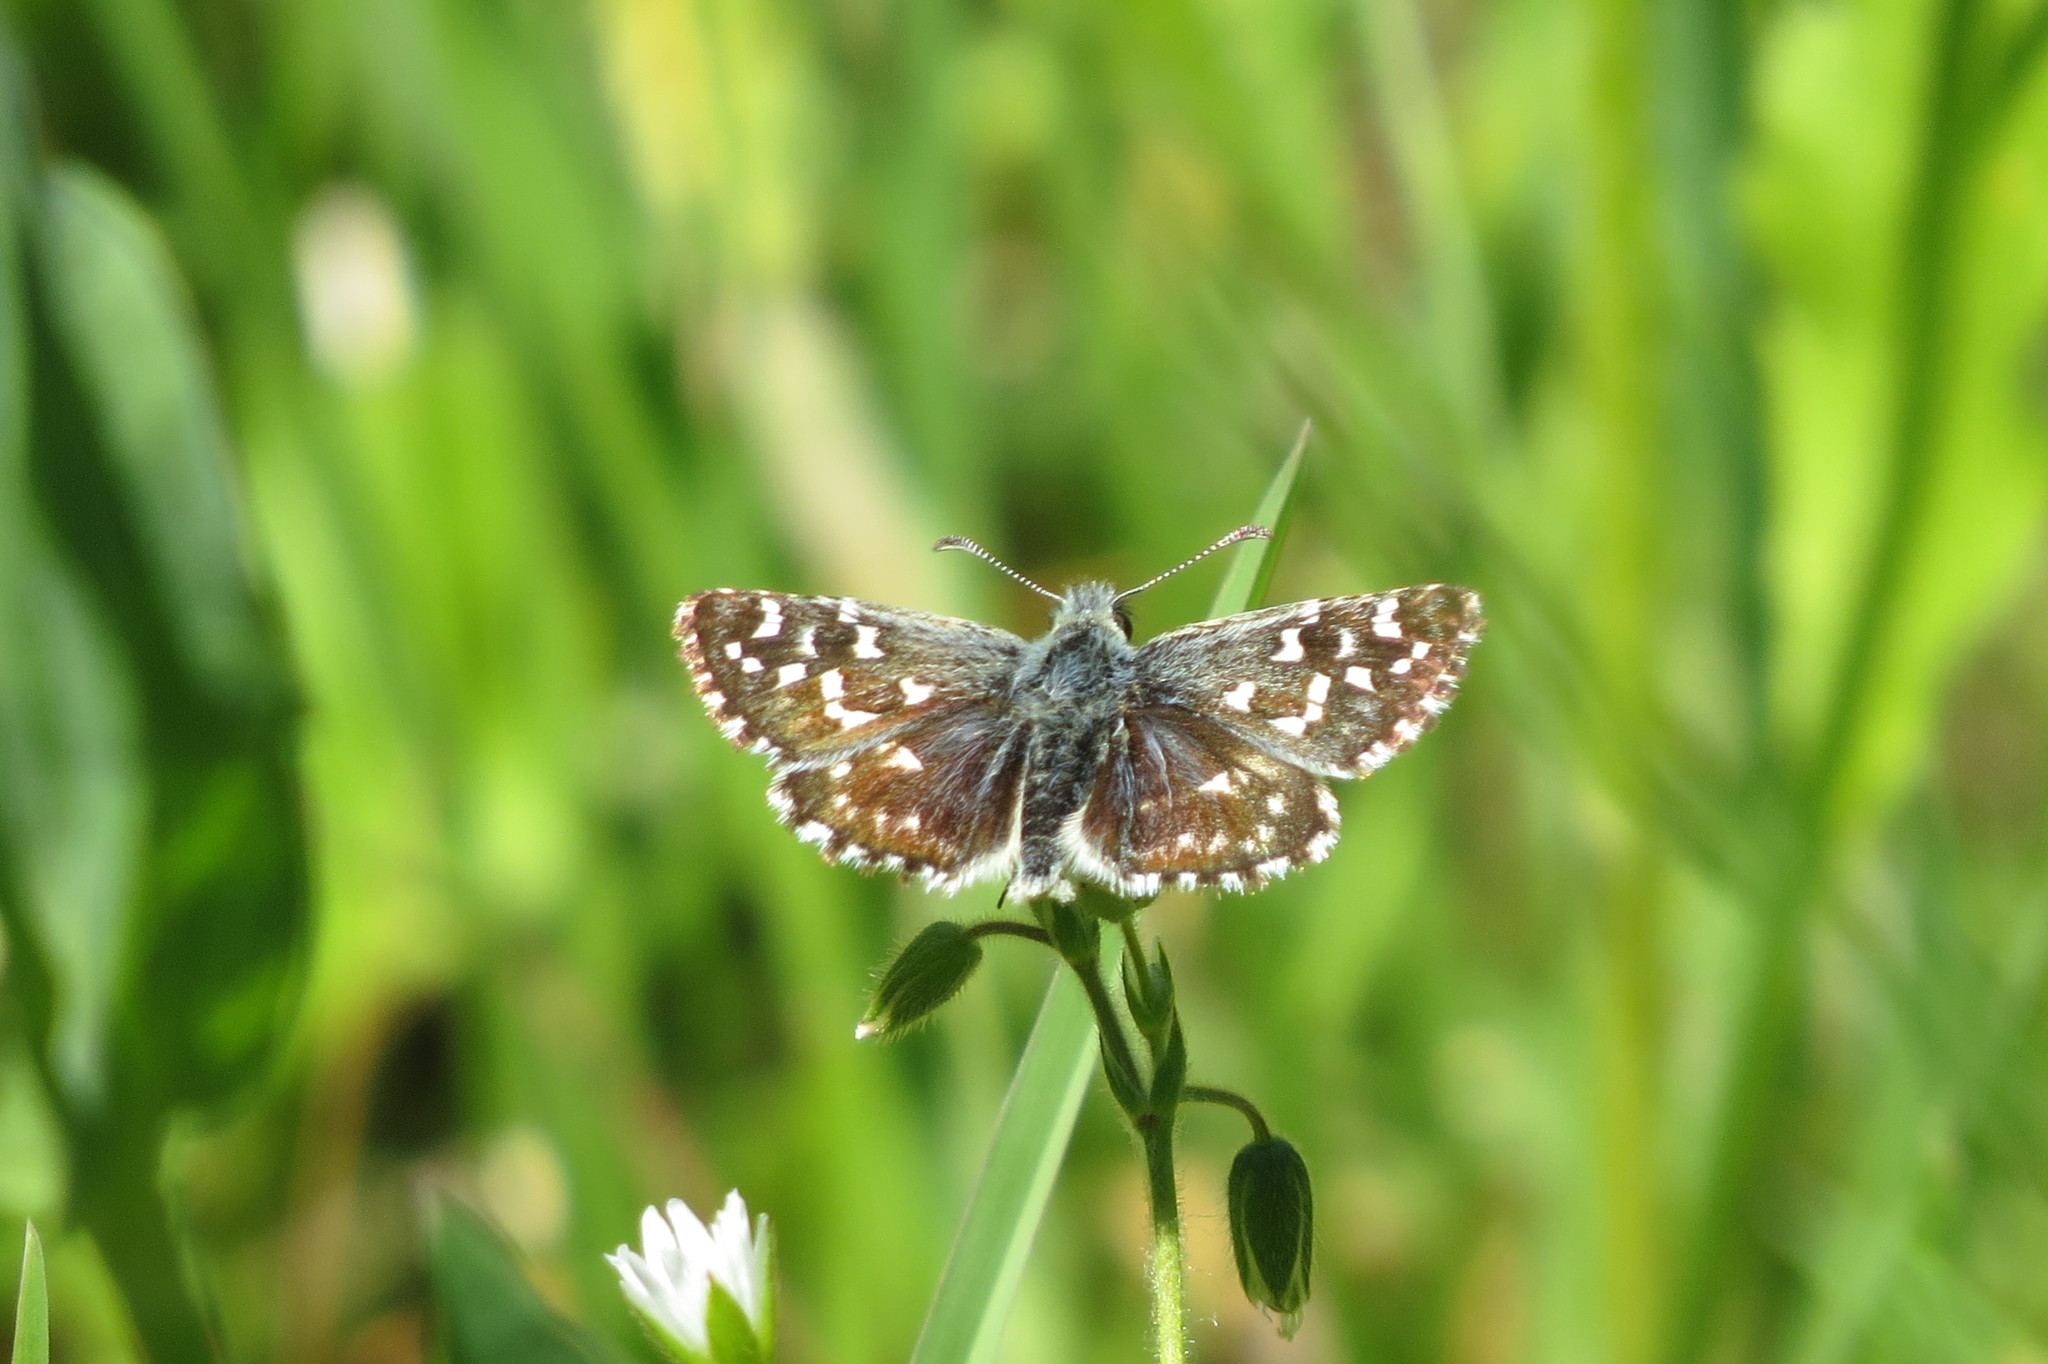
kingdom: Animalia
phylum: Arthropoda
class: Insecta
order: Lepidoptera
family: Hesperiidae
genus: Pyrgus
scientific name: Pyrgus malvoides
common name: Southern grizzled skipper
